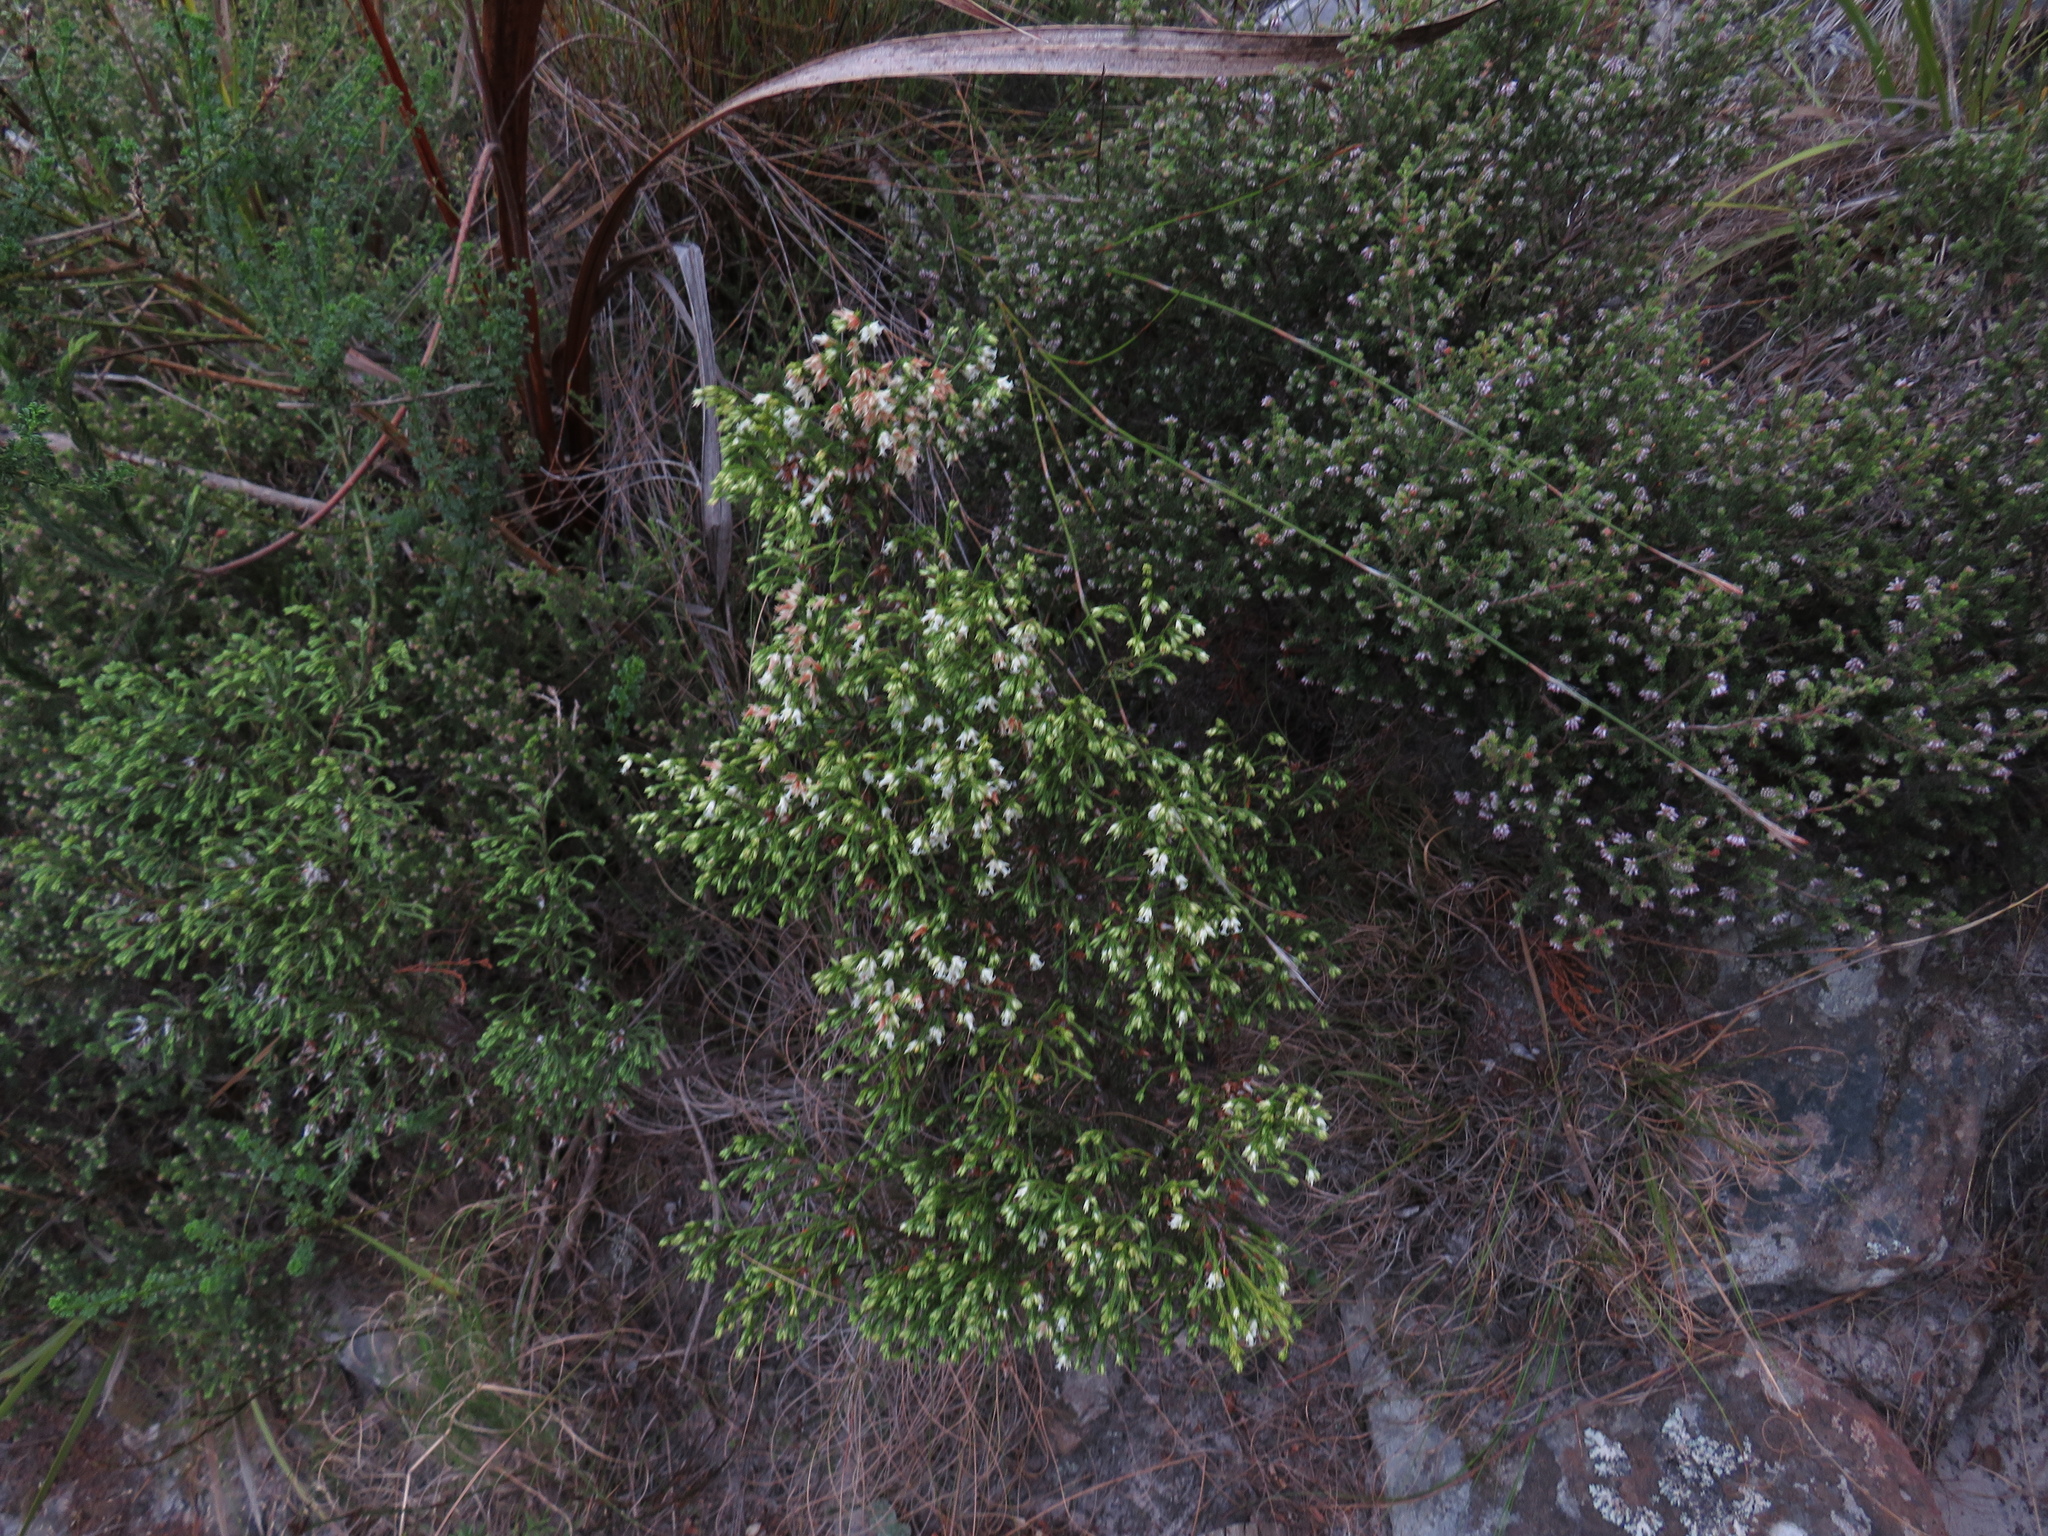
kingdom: Plantae
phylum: Tracheophyta
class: Magnoliopsida
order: Ericales
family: Ericaceae
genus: Erica
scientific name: Erica lutea
